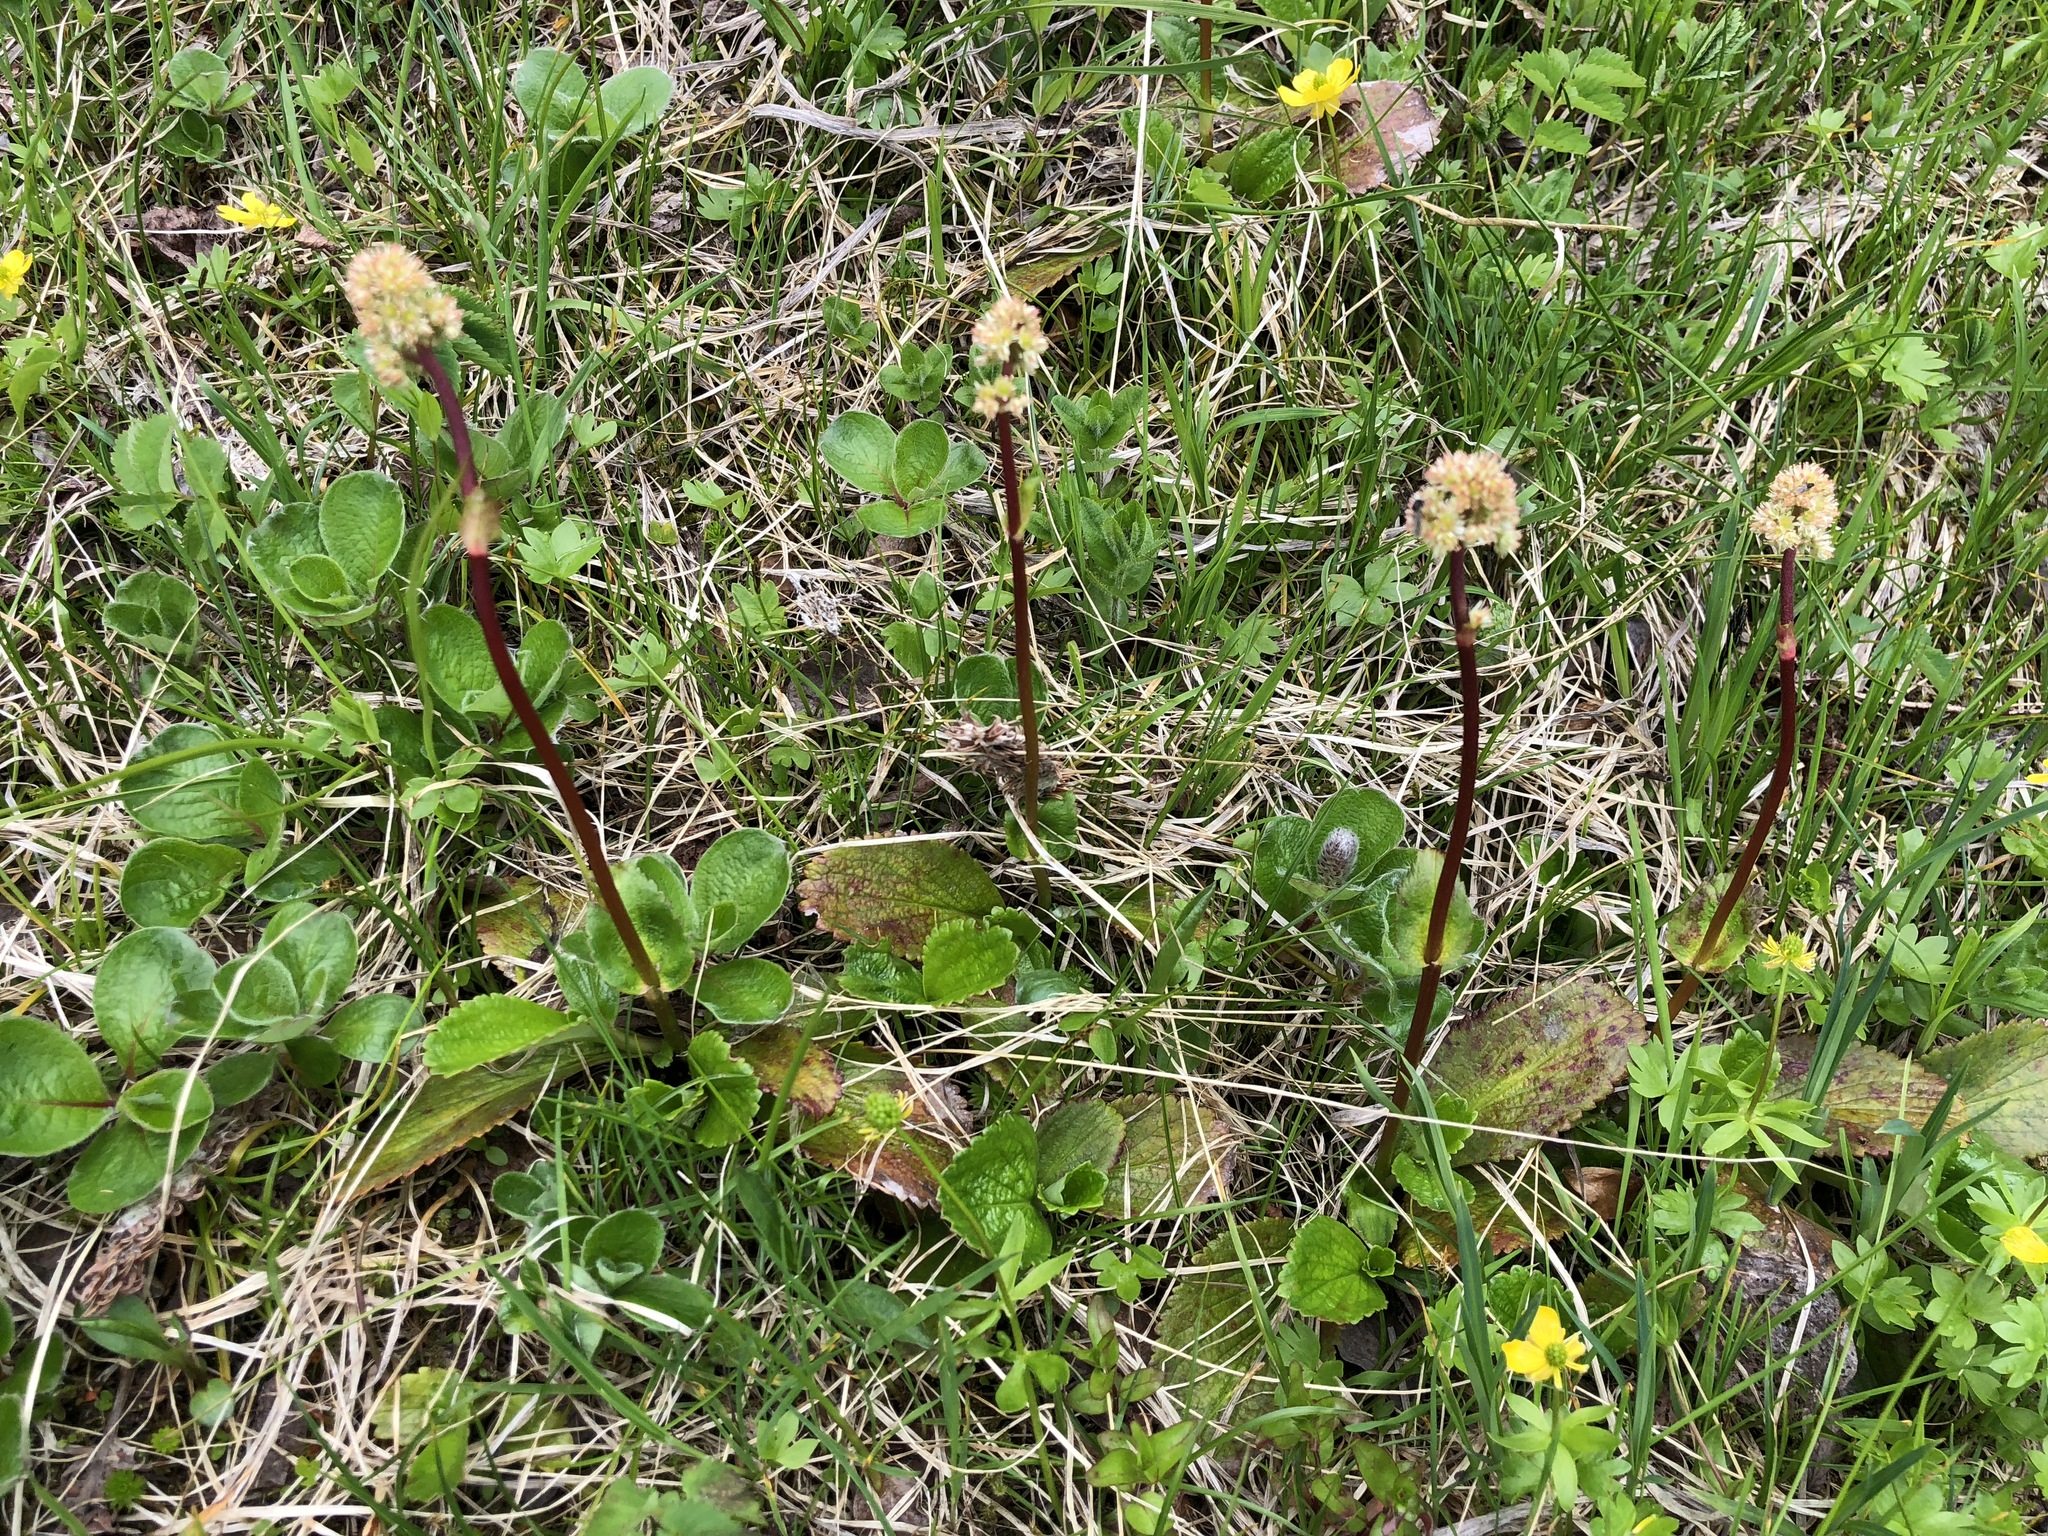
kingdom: Plantae
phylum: Tracheophyta
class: Magnoliopsida
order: Saxifragales
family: Saxifragaceae
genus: Leptarrhena
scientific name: Leptarrhena pyrolifolia
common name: Leatherleaf-saxifrage
